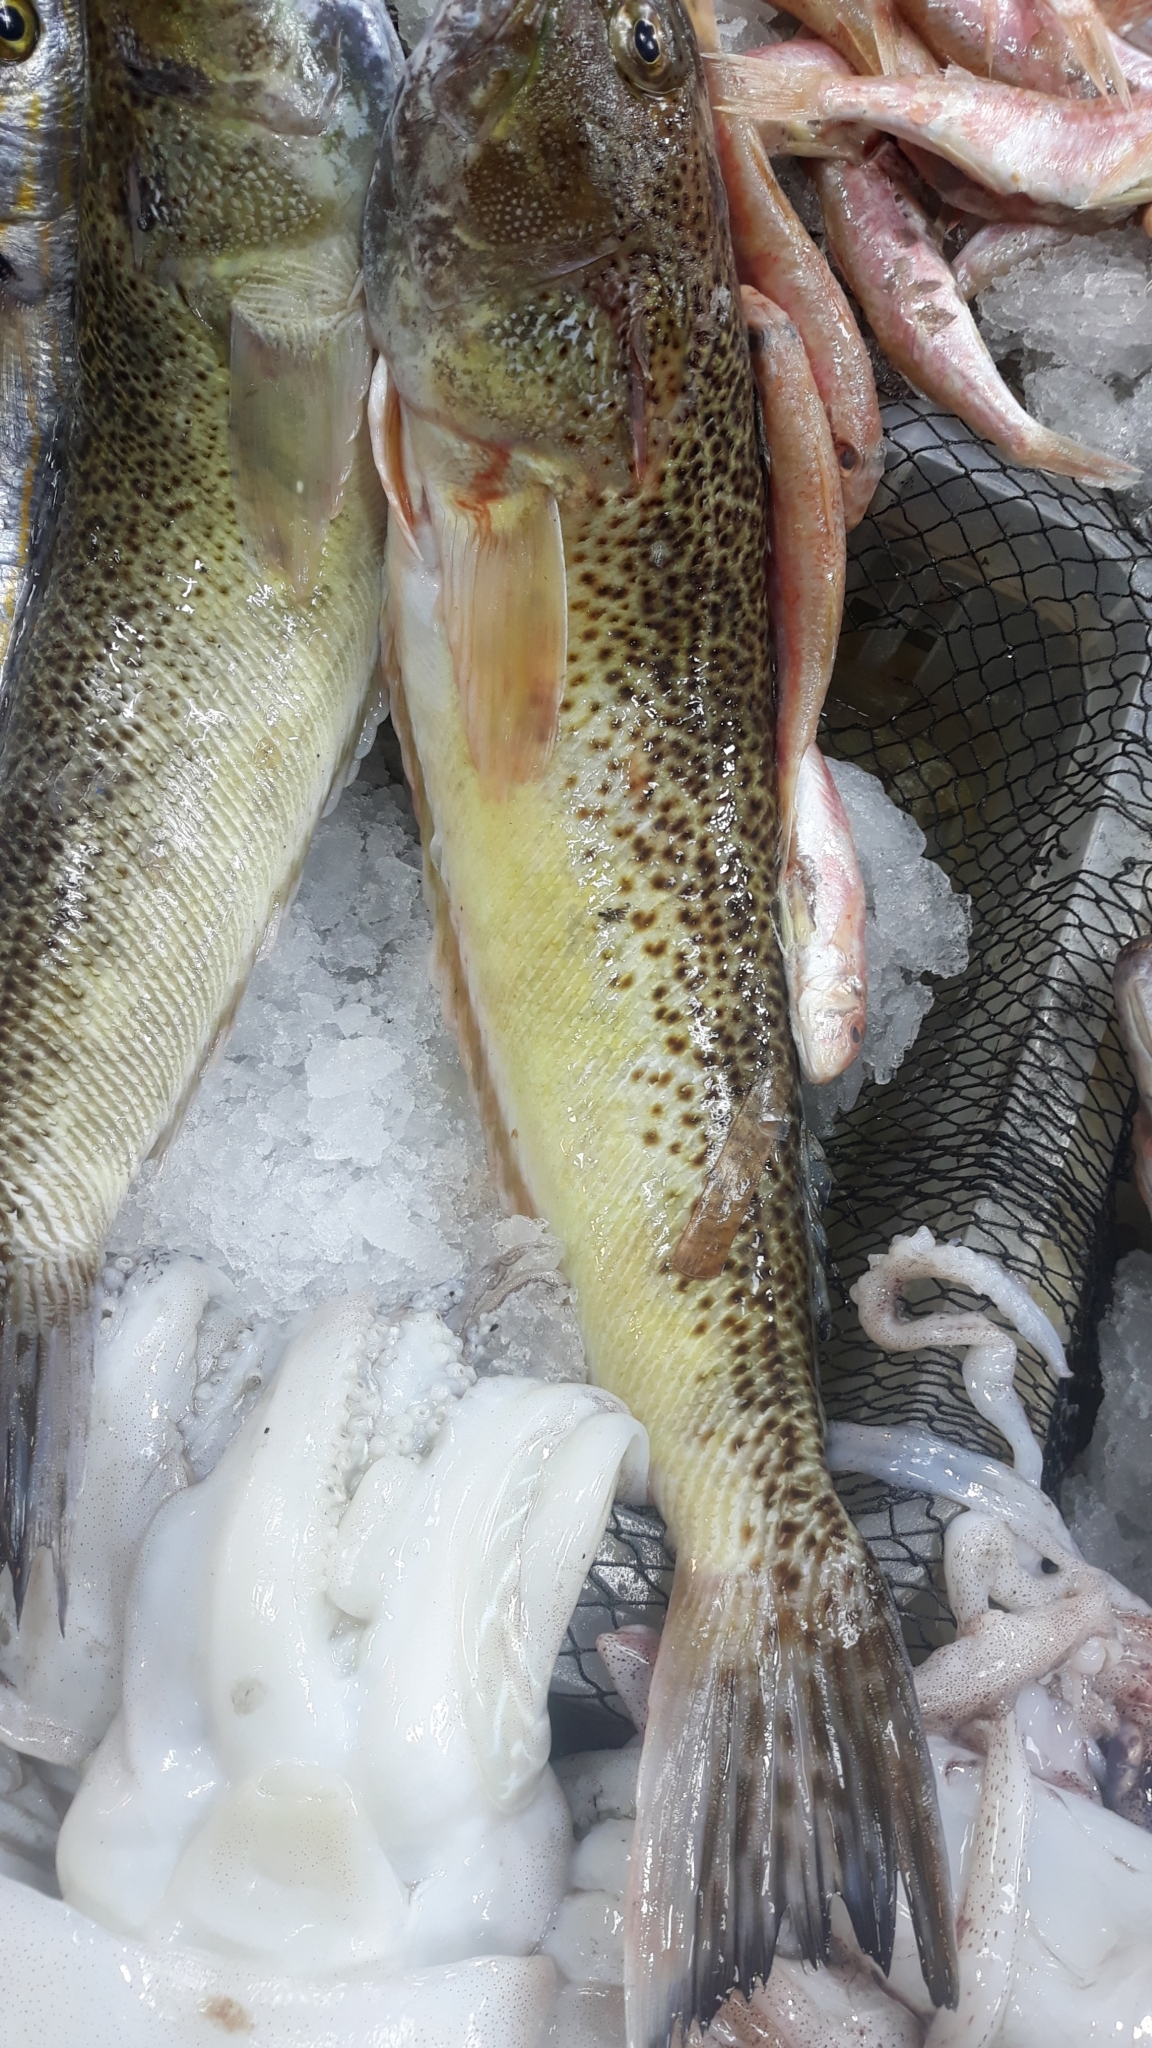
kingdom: Animalia
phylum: Chordata
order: Perciformes
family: Trachinidae
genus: Trachinus
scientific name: Trachinus radiatus
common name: Starry weever
